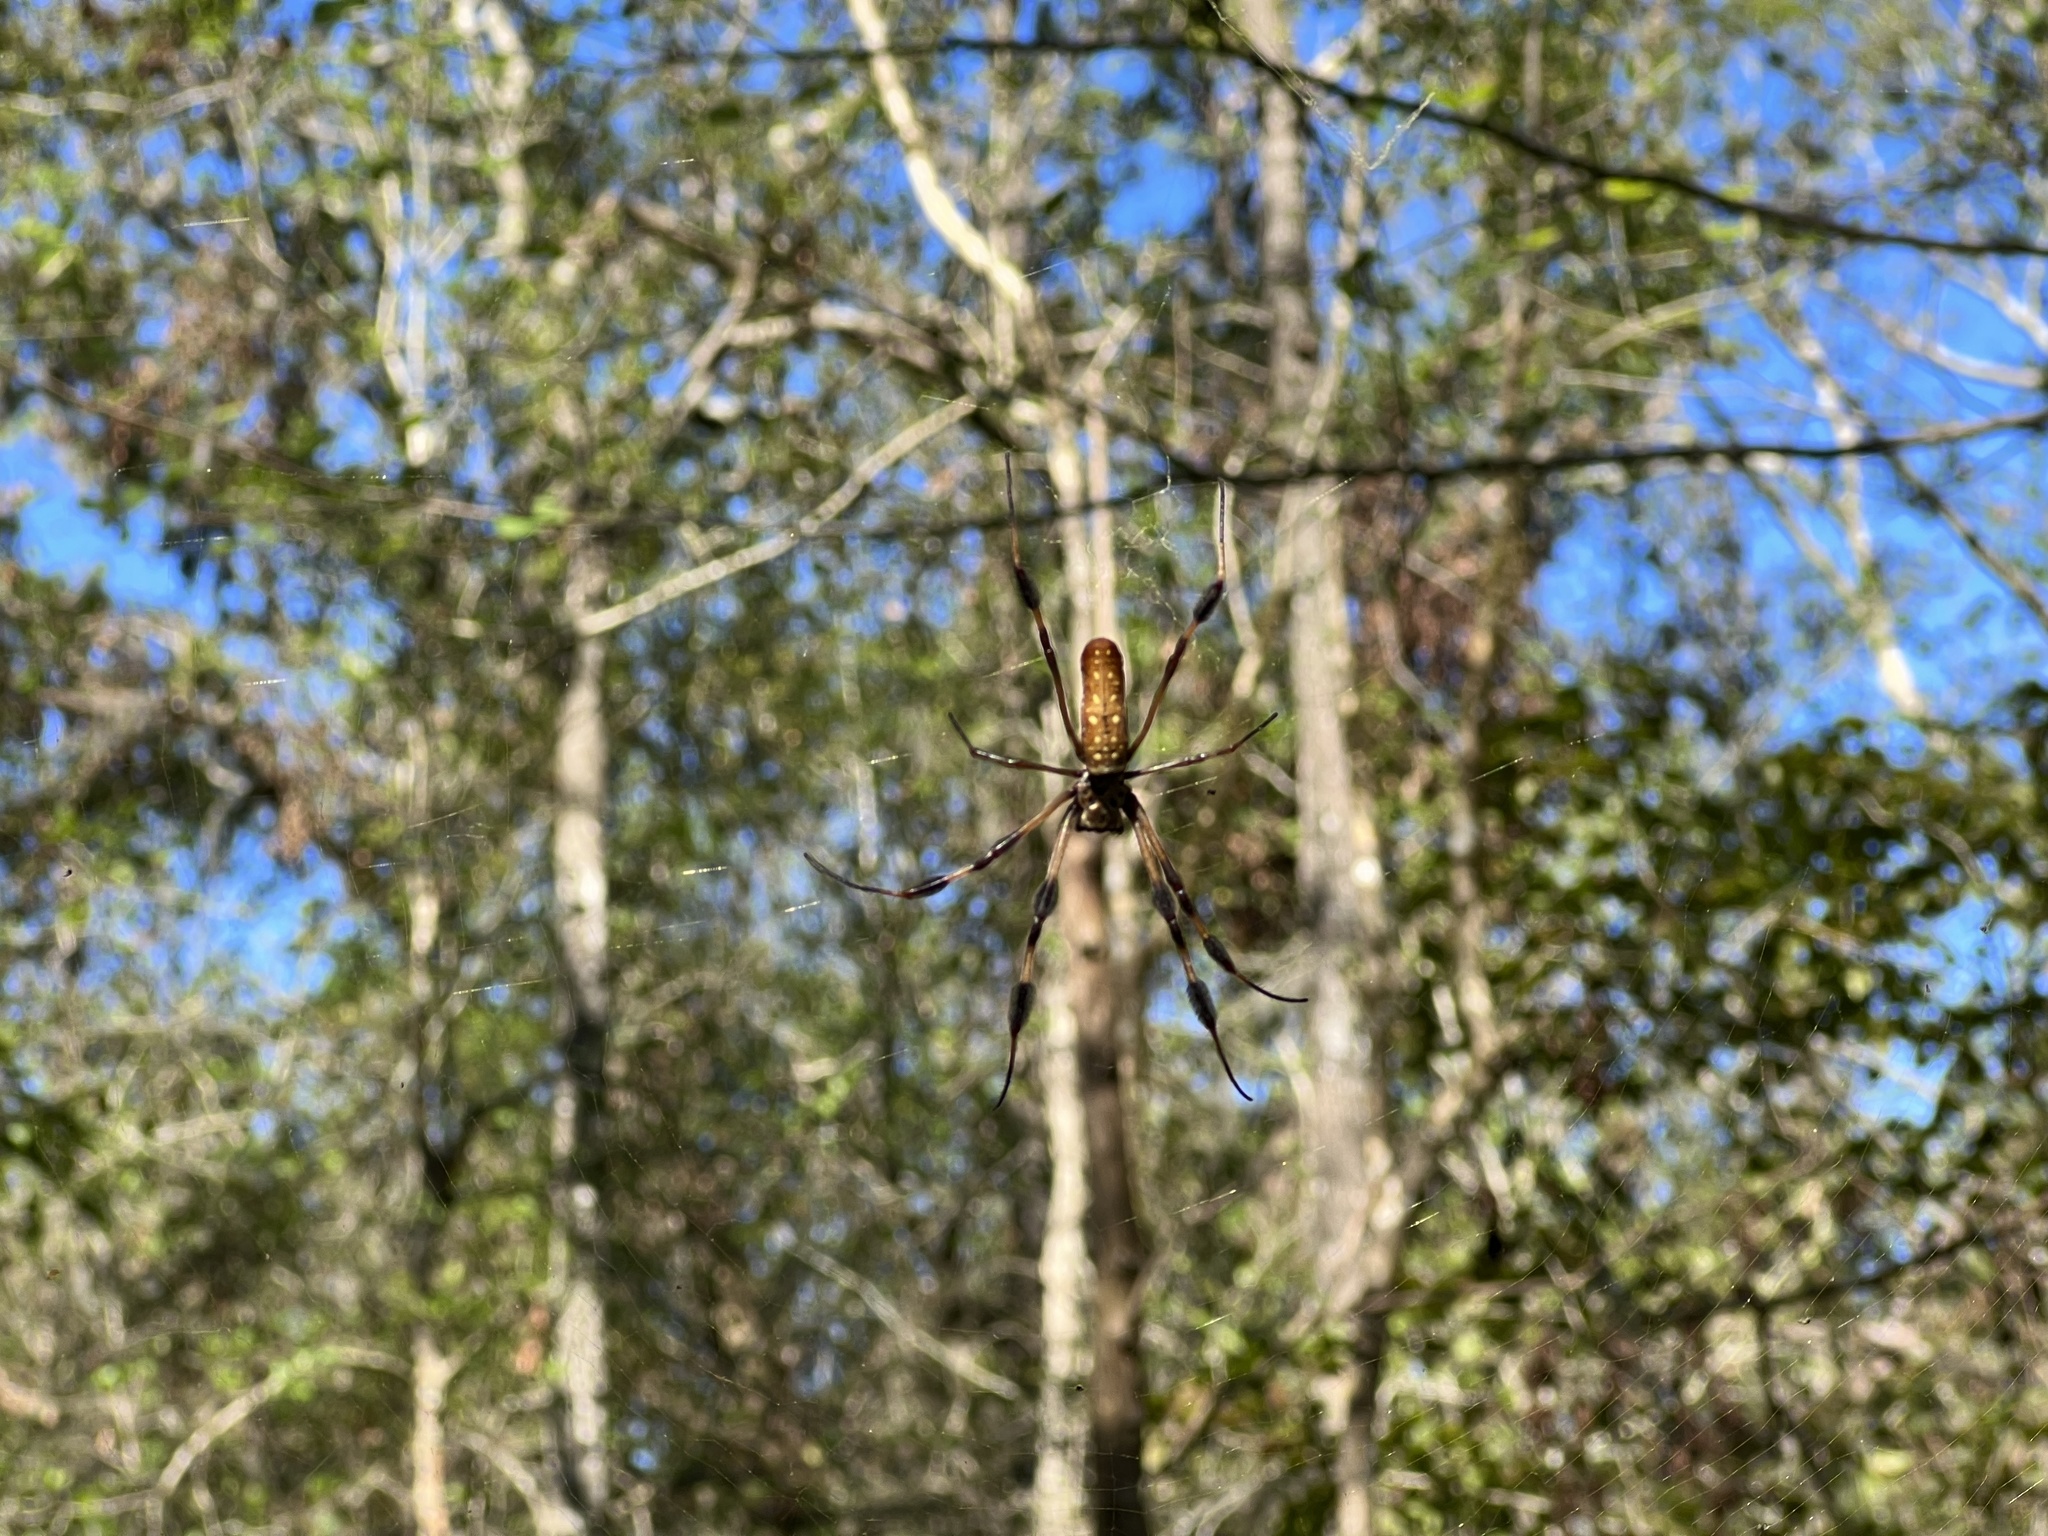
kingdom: Animalia
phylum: Arthropoda
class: Arachnida
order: Araneae
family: Araneidae
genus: Trichonephila
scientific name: Trichonephila clavipes
